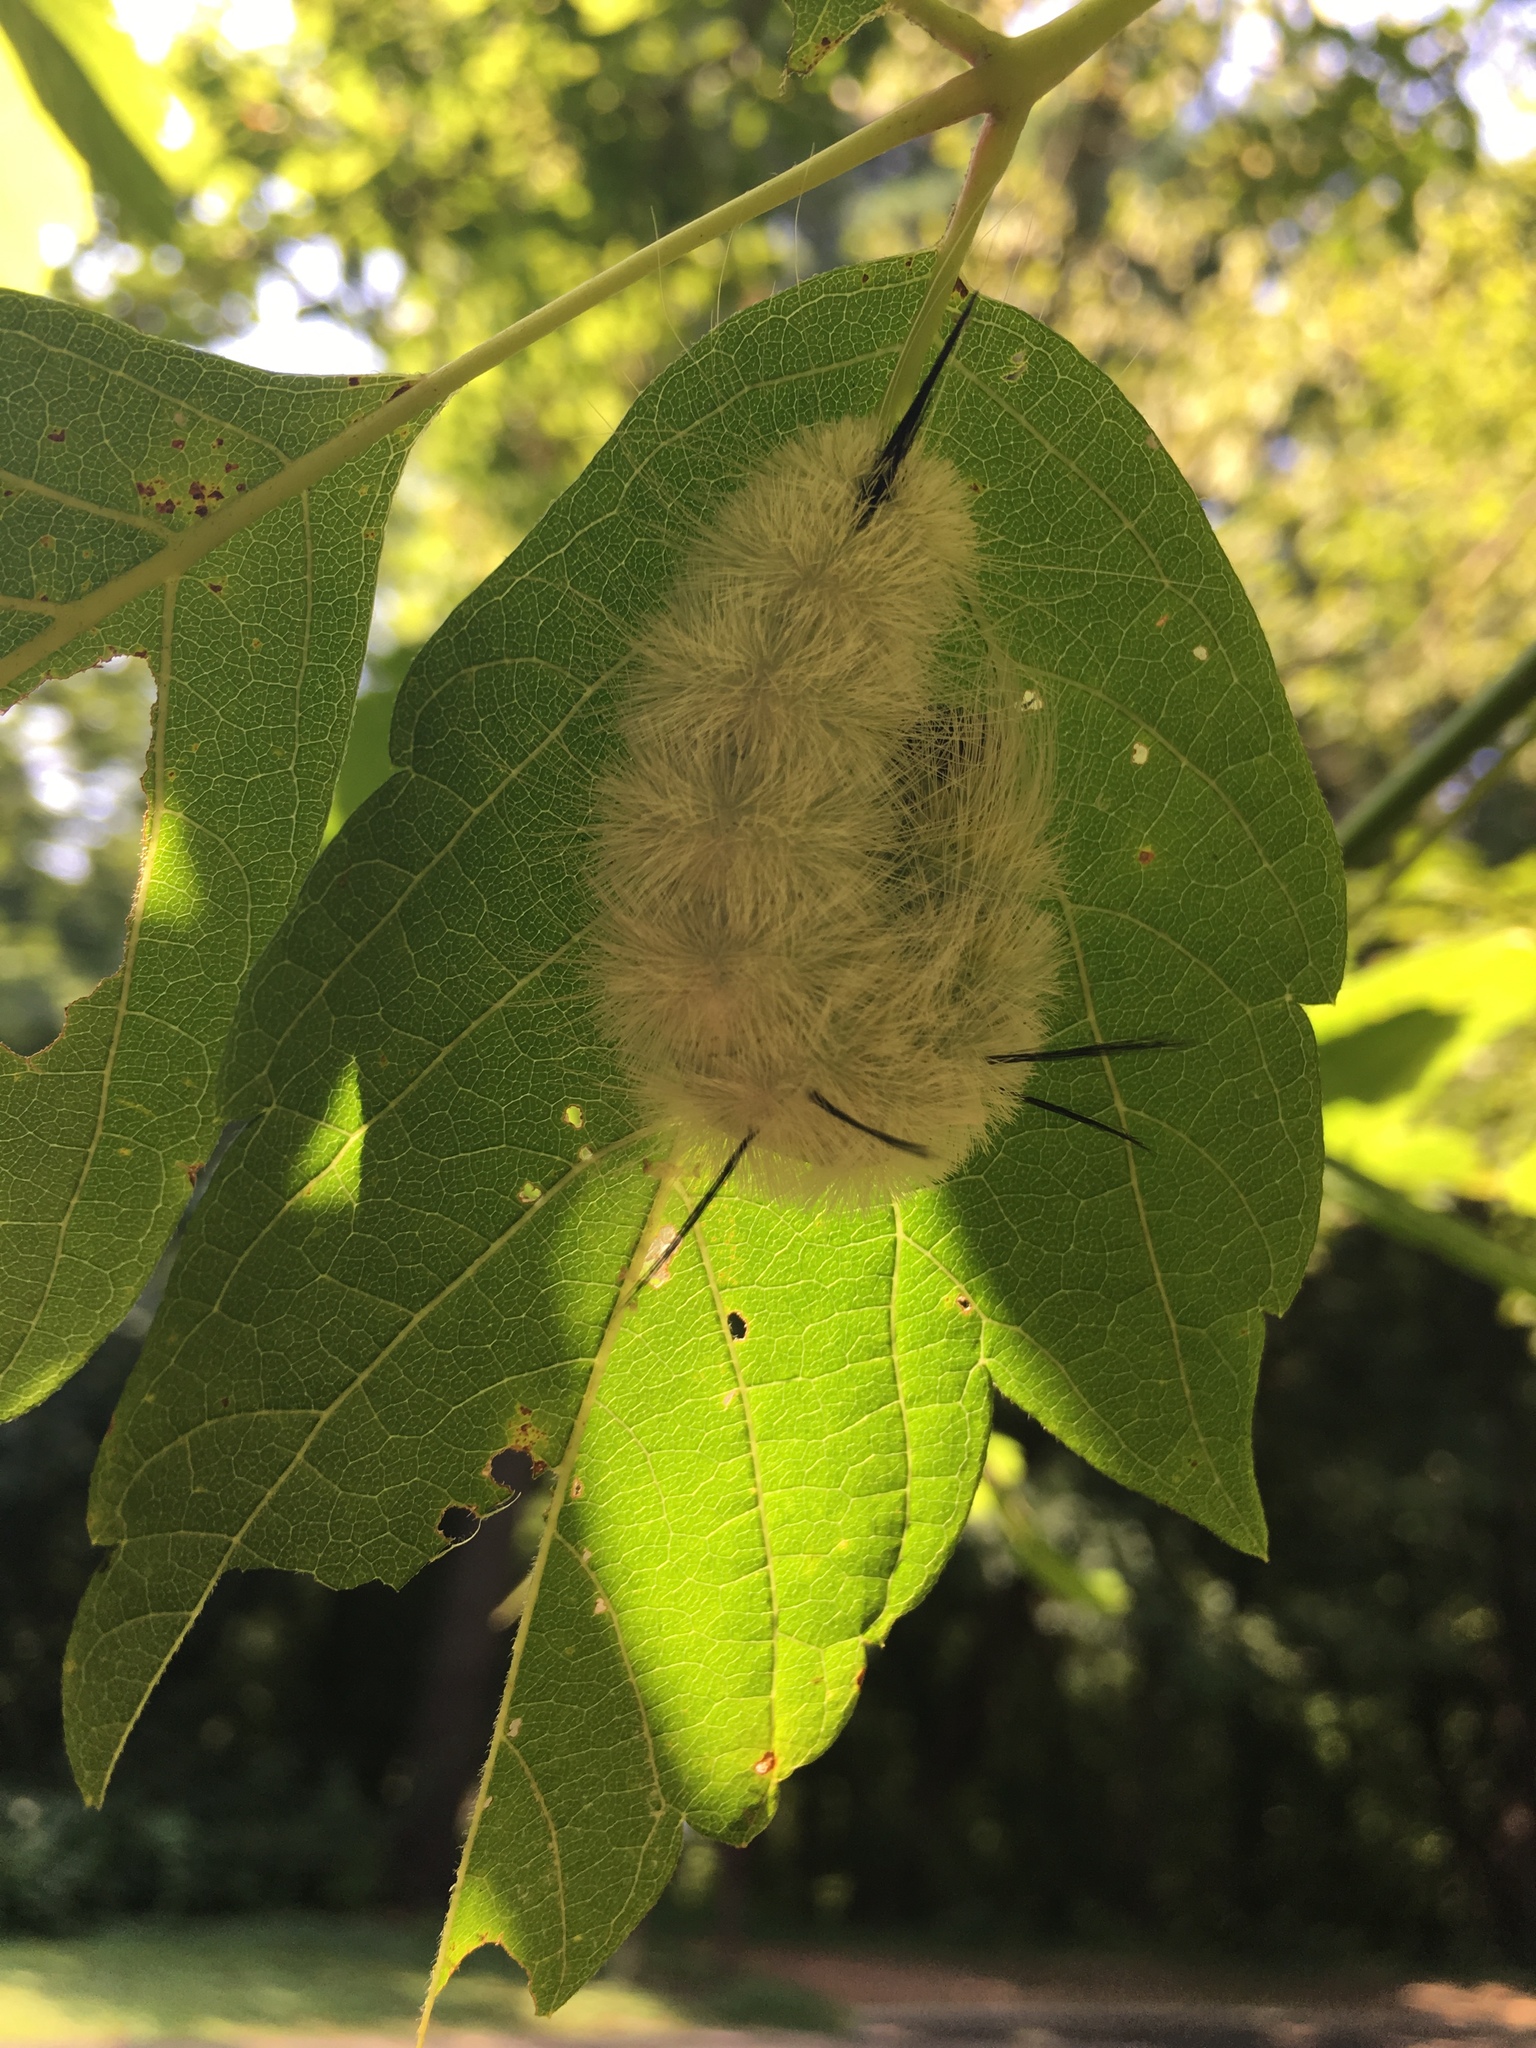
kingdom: Animalia
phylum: Arthropoda
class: Insecta
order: Lepidoptera
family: Noctuidae
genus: Acronicta
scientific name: Acronicta americana
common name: American dagger
